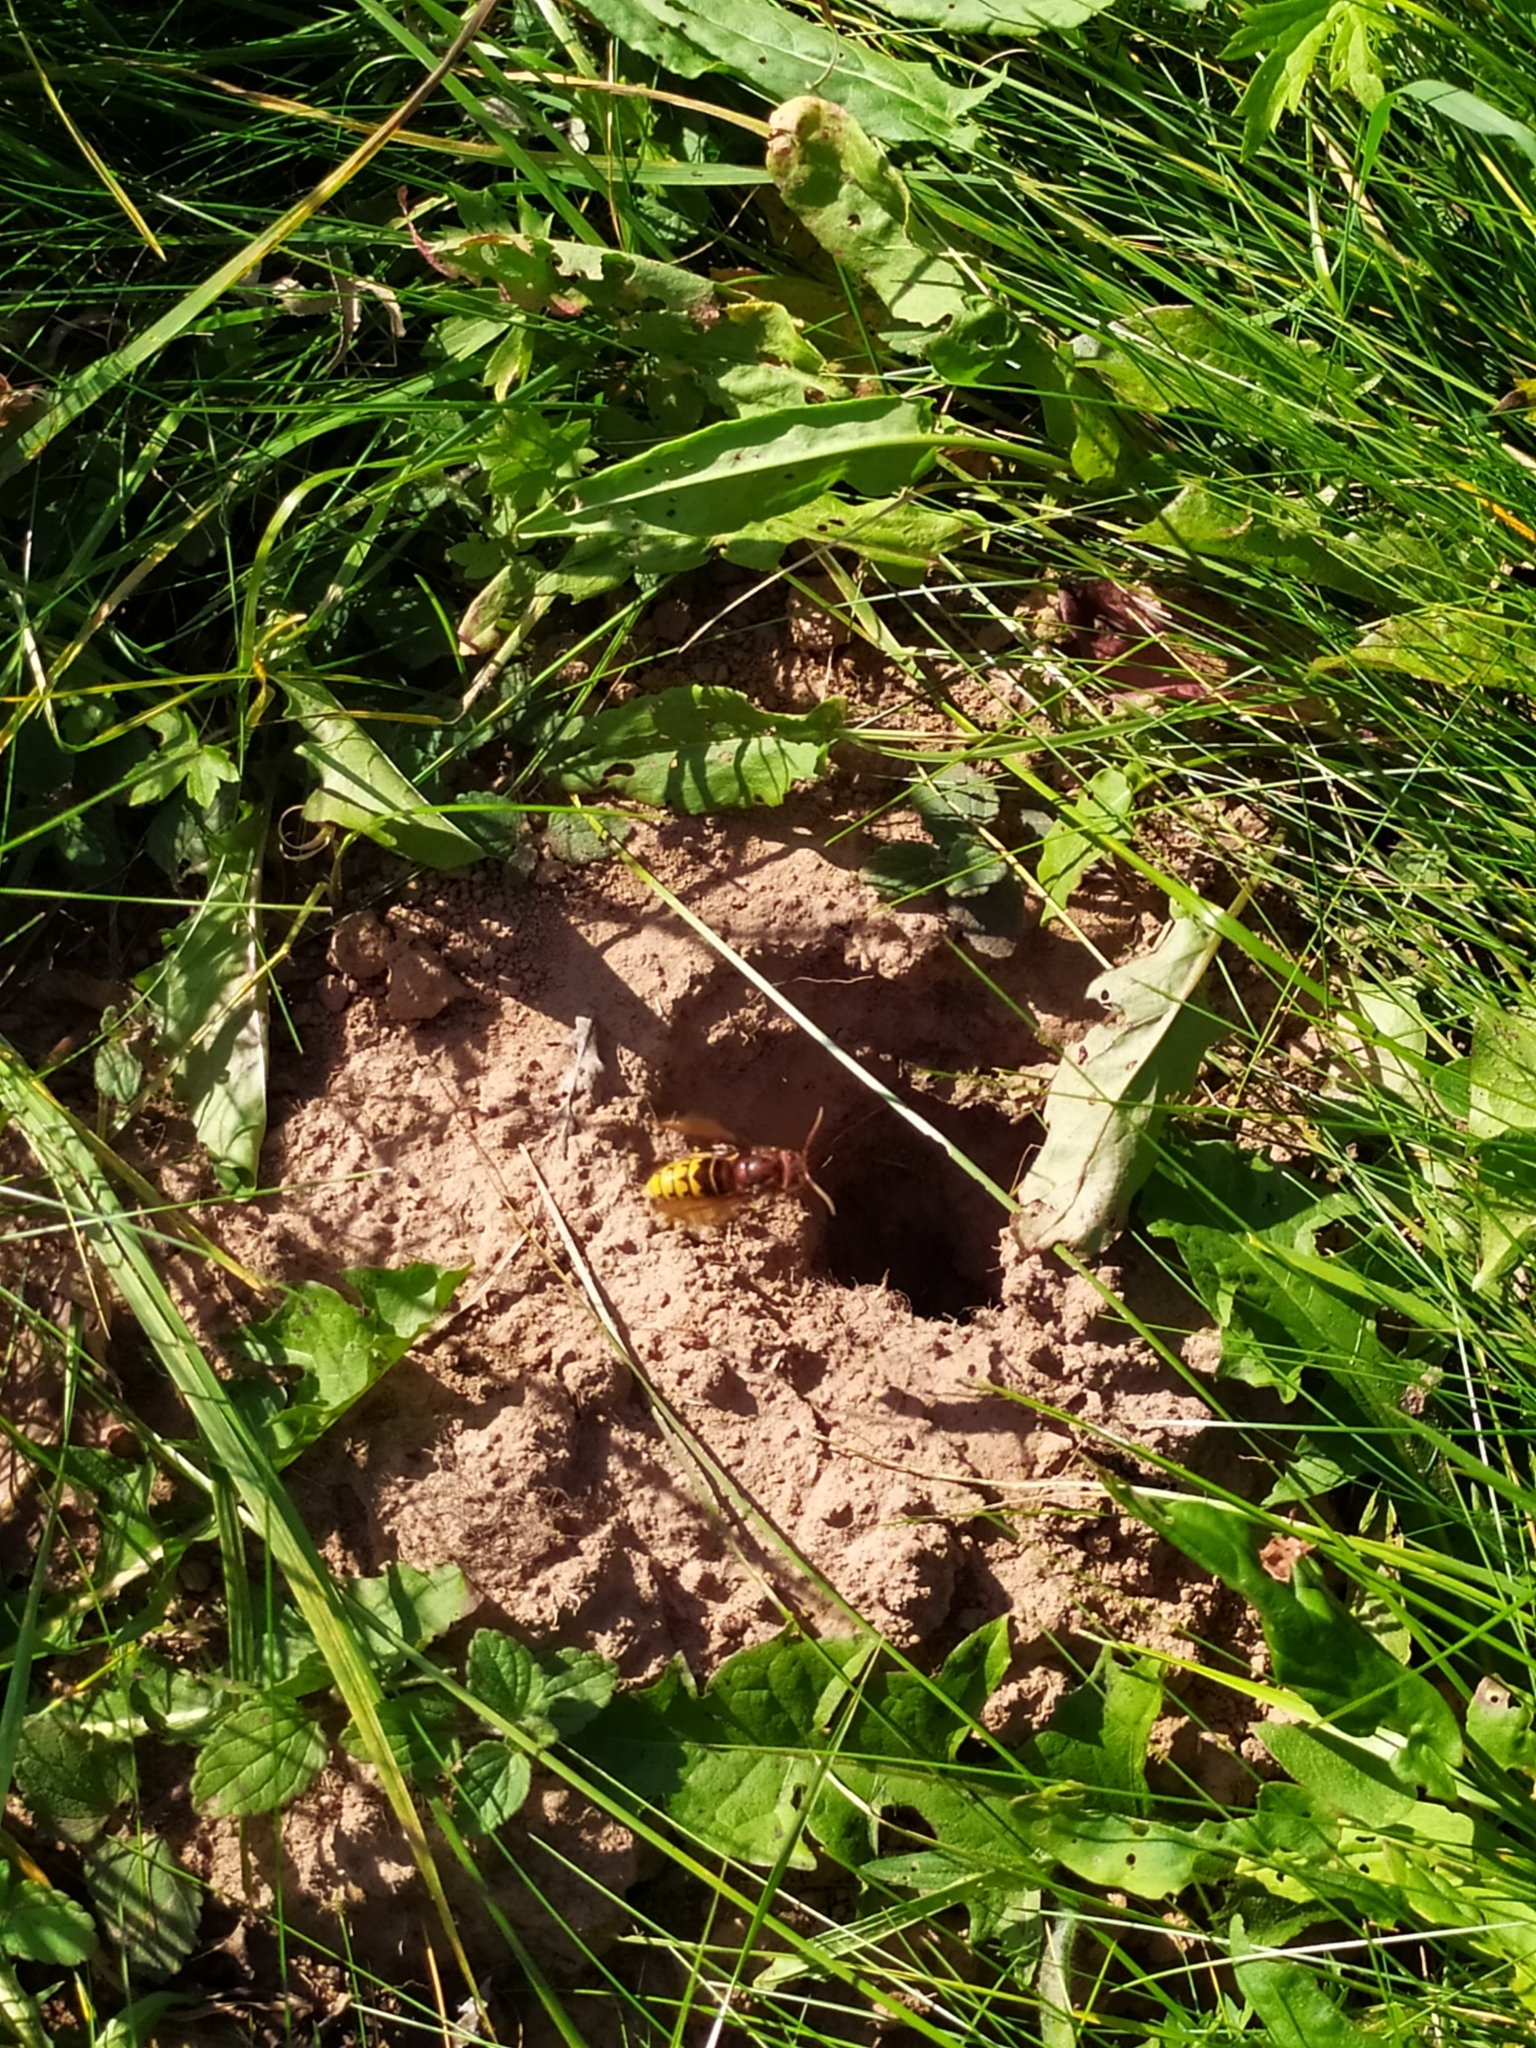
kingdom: Animalia
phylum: Arthropoda
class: Insecta
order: Hymenoptera
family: Vespidae
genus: Vespa
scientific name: Vespa crabro
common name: Hornet
